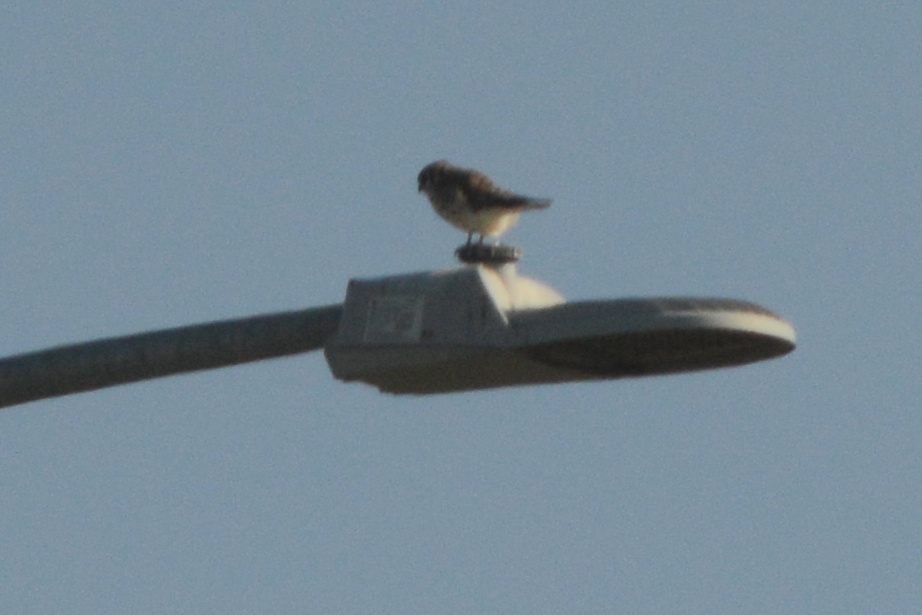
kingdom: Animalia
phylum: Chordata
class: Aves
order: Falconiformes
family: Falconidae
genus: Falco
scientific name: Falco sparverius
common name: American kestrel
